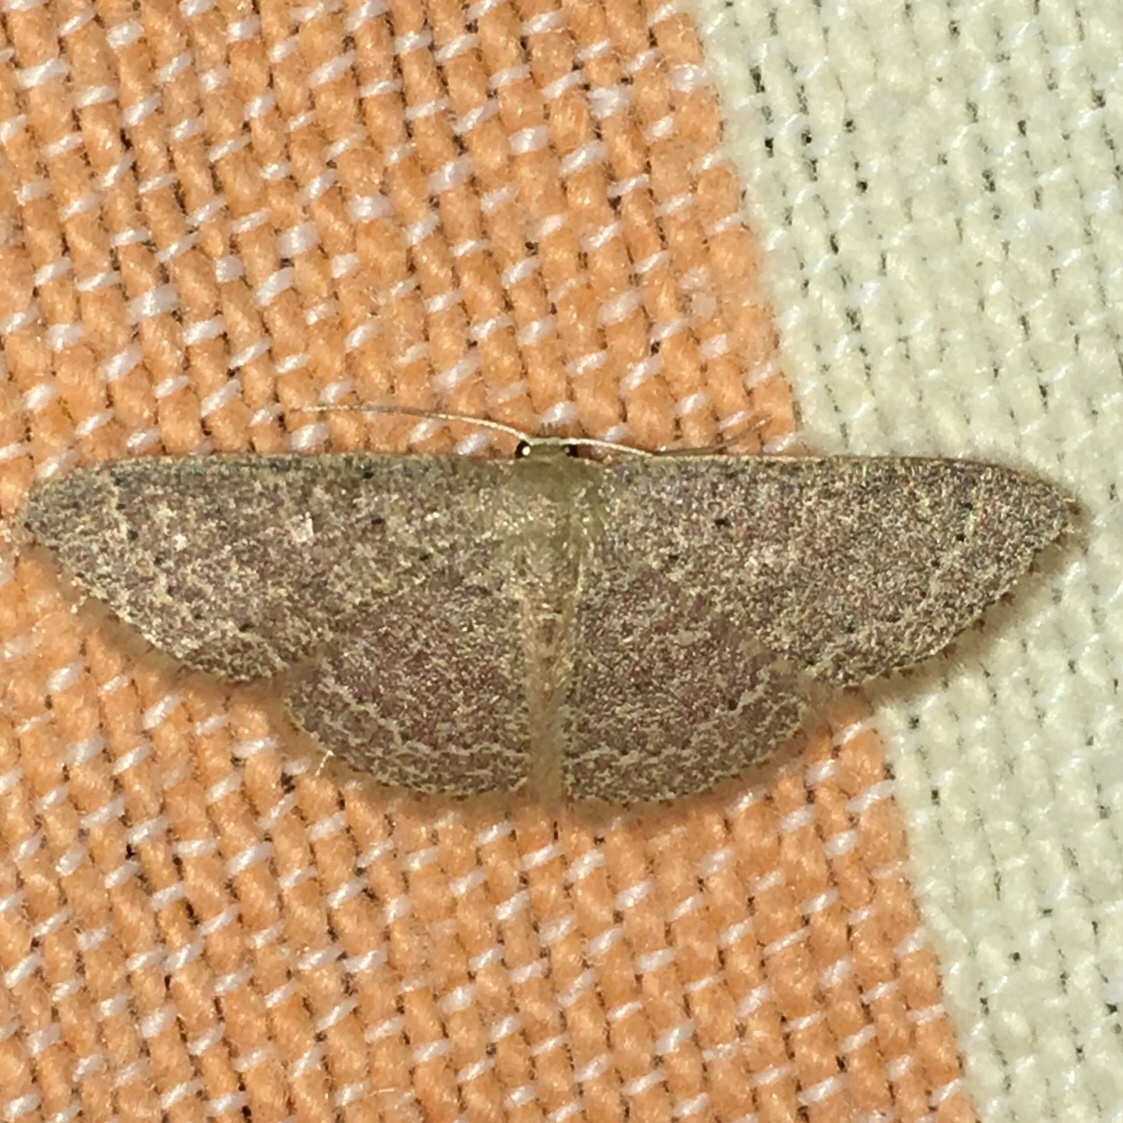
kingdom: Animalia
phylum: Arthropoda
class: Insecta
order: Lepidoptera
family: Geometridae
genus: Pleuroprucha
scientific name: Pleuroprucha insulsaria
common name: Common tan wave
